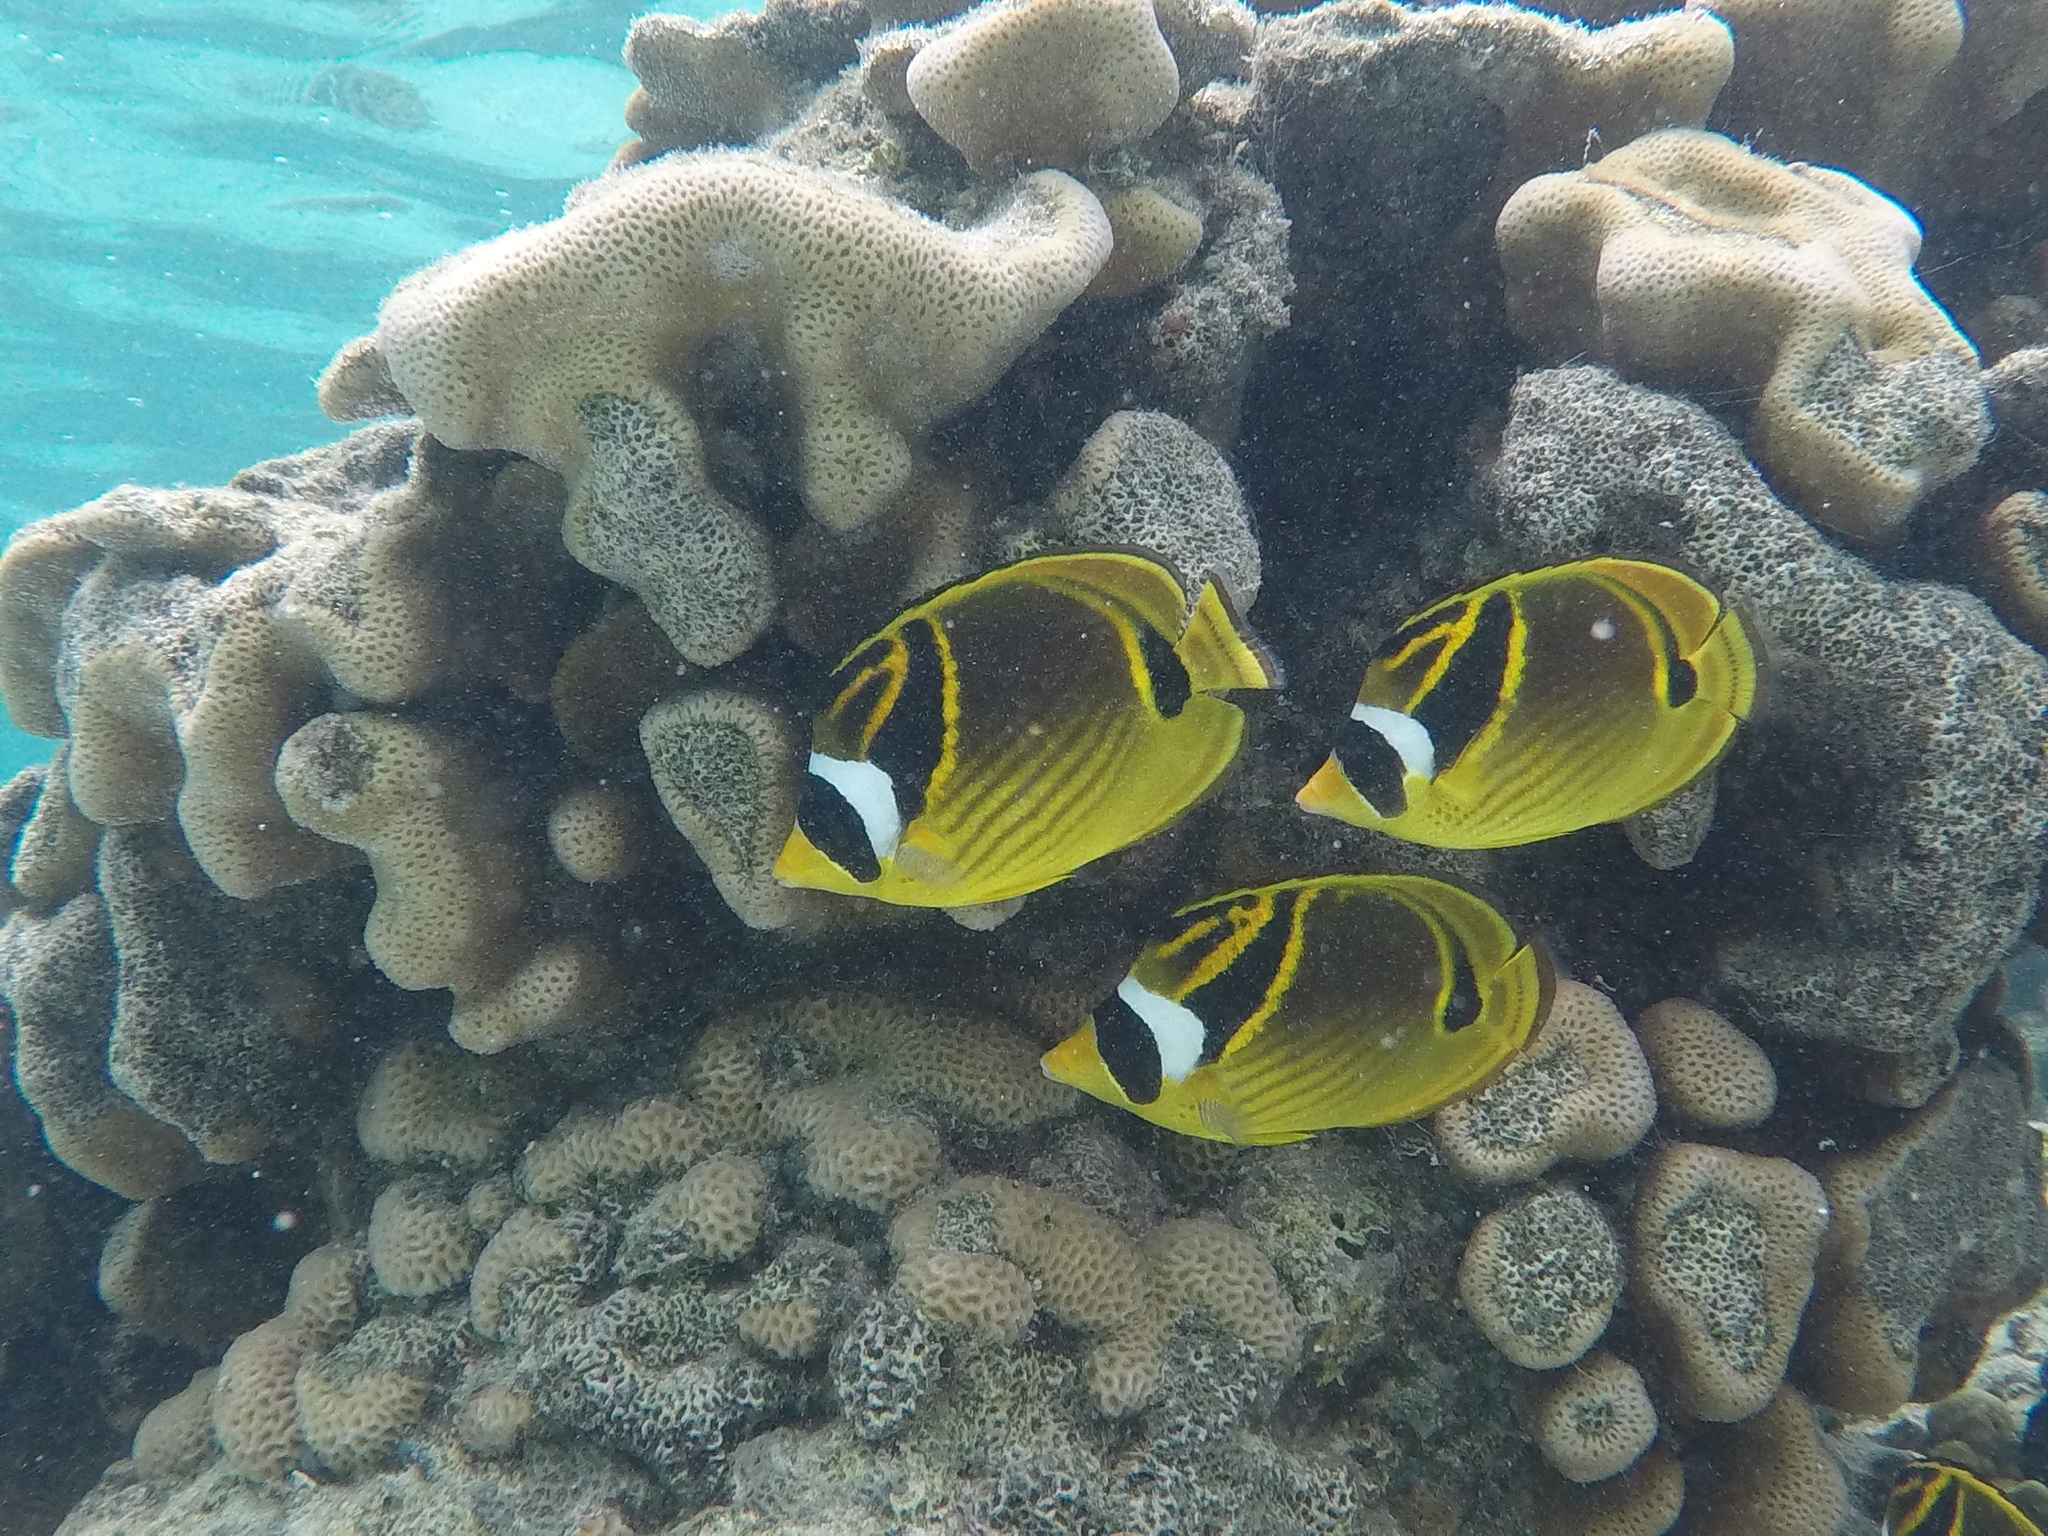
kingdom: Animalia
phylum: Chordata
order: Perciformes
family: Chaetodontidae
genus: Chaetodon
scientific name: Chaetodon lunula
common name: Raccoon butterflyfish
